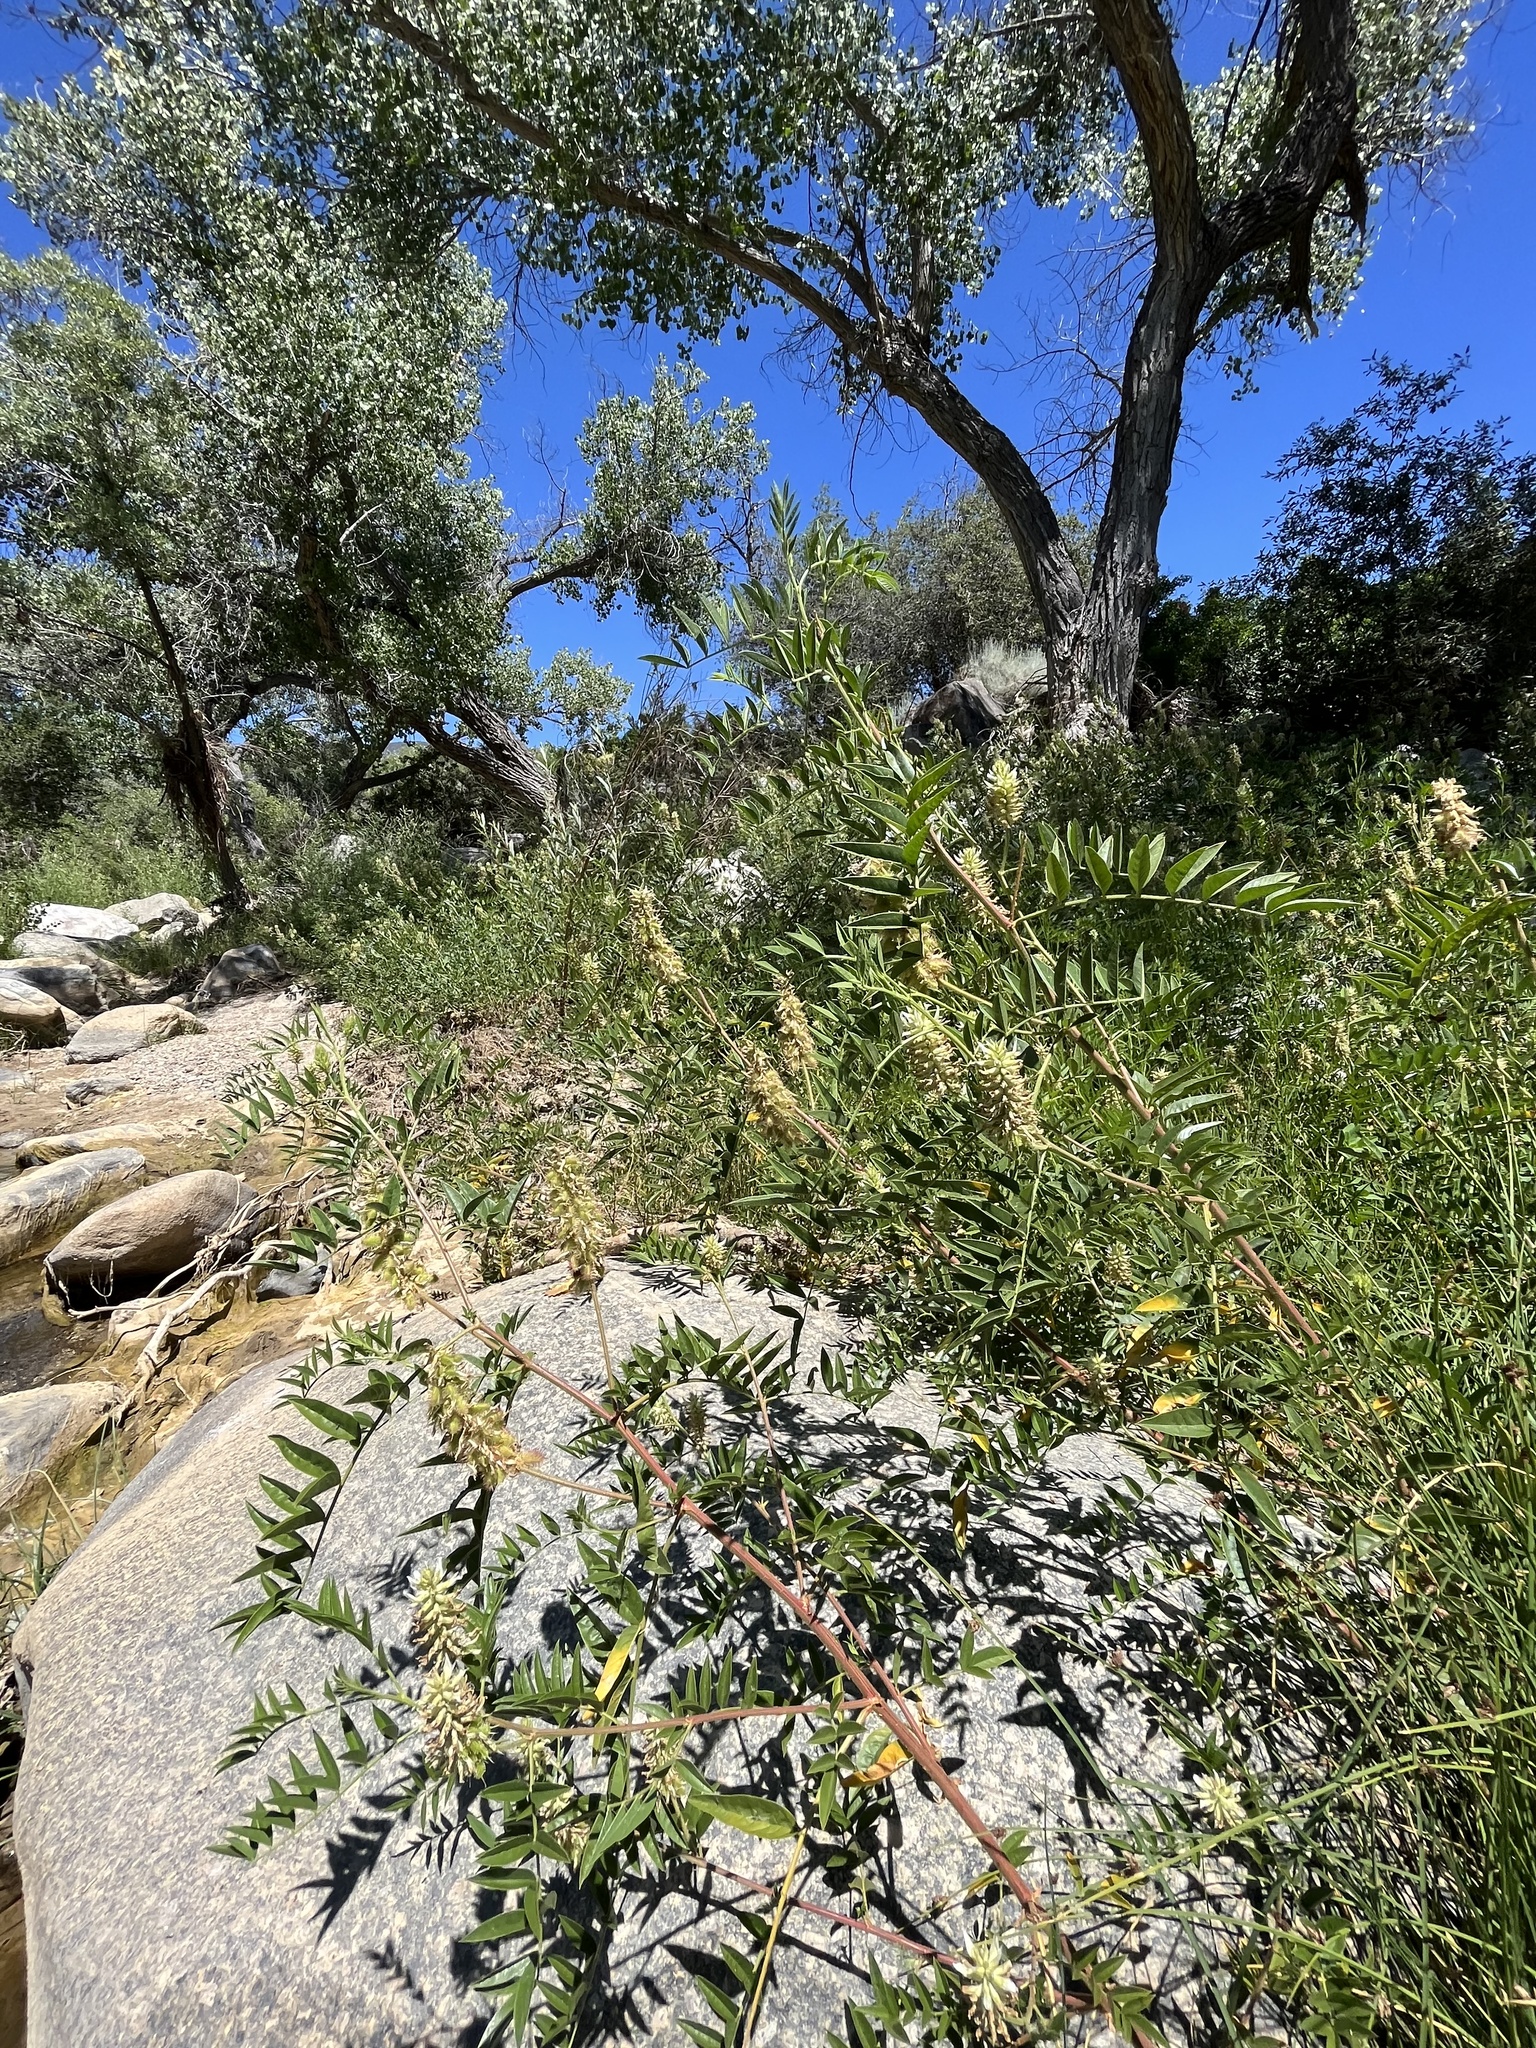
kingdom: Plantae
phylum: Tracheophyta
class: Magnoliopsida
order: Fabales
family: Fabaceae
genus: Glycyrrhiza
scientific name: Glycyrrhiza lepidota
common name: American liquorice
